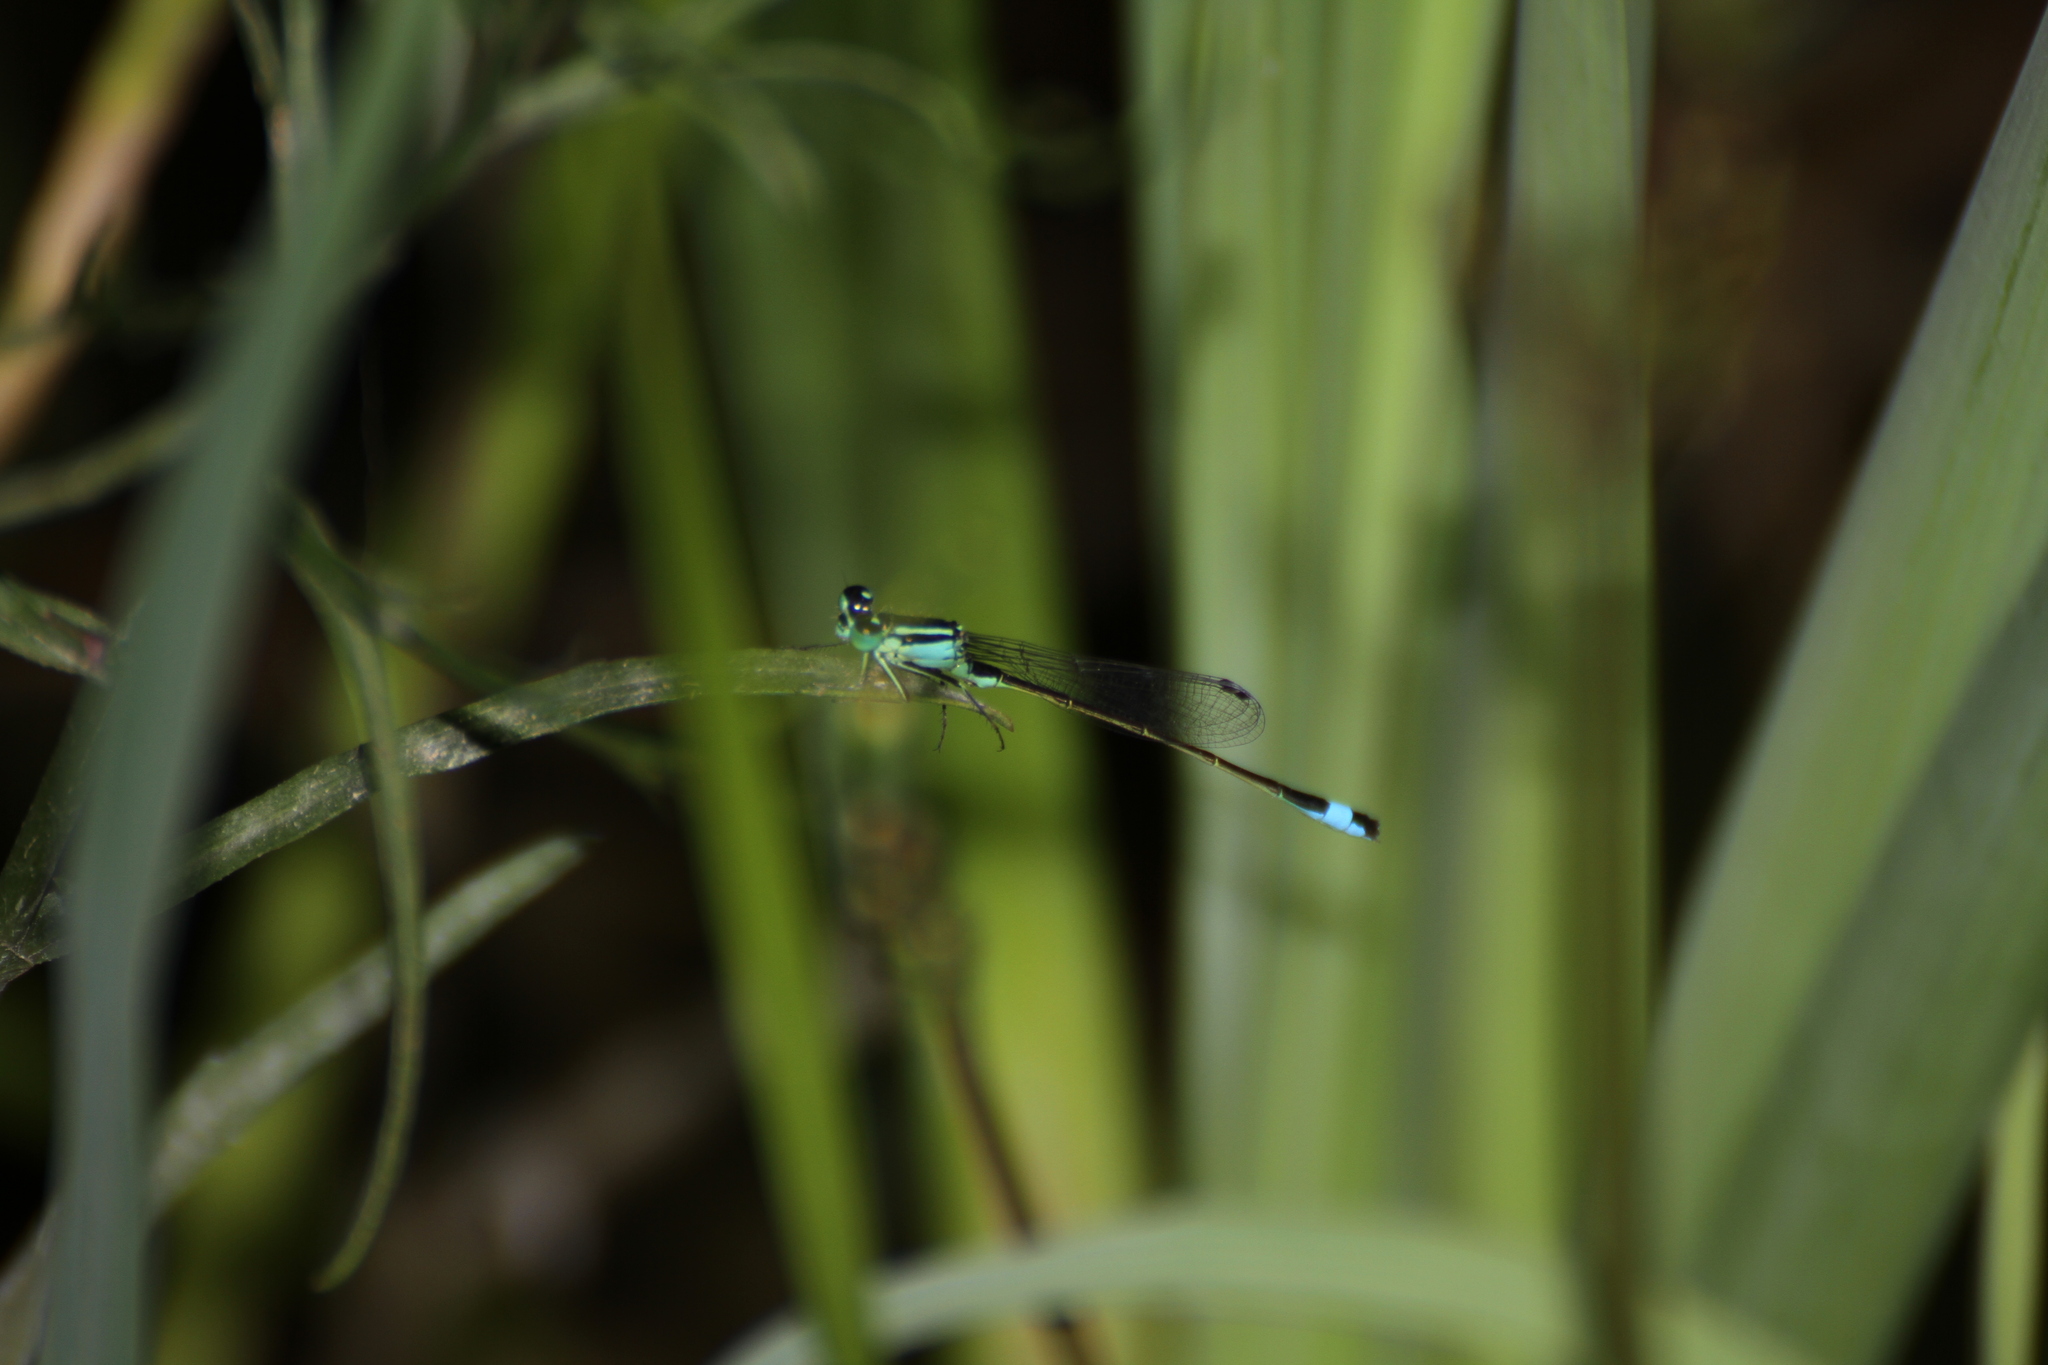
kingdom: Animalia
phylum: Arthropoda
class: Insecta
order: Odonata
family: Coenagrionidae
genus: Ischnura
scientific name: Ischnura elegans
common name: Blue-tailed damselfly
